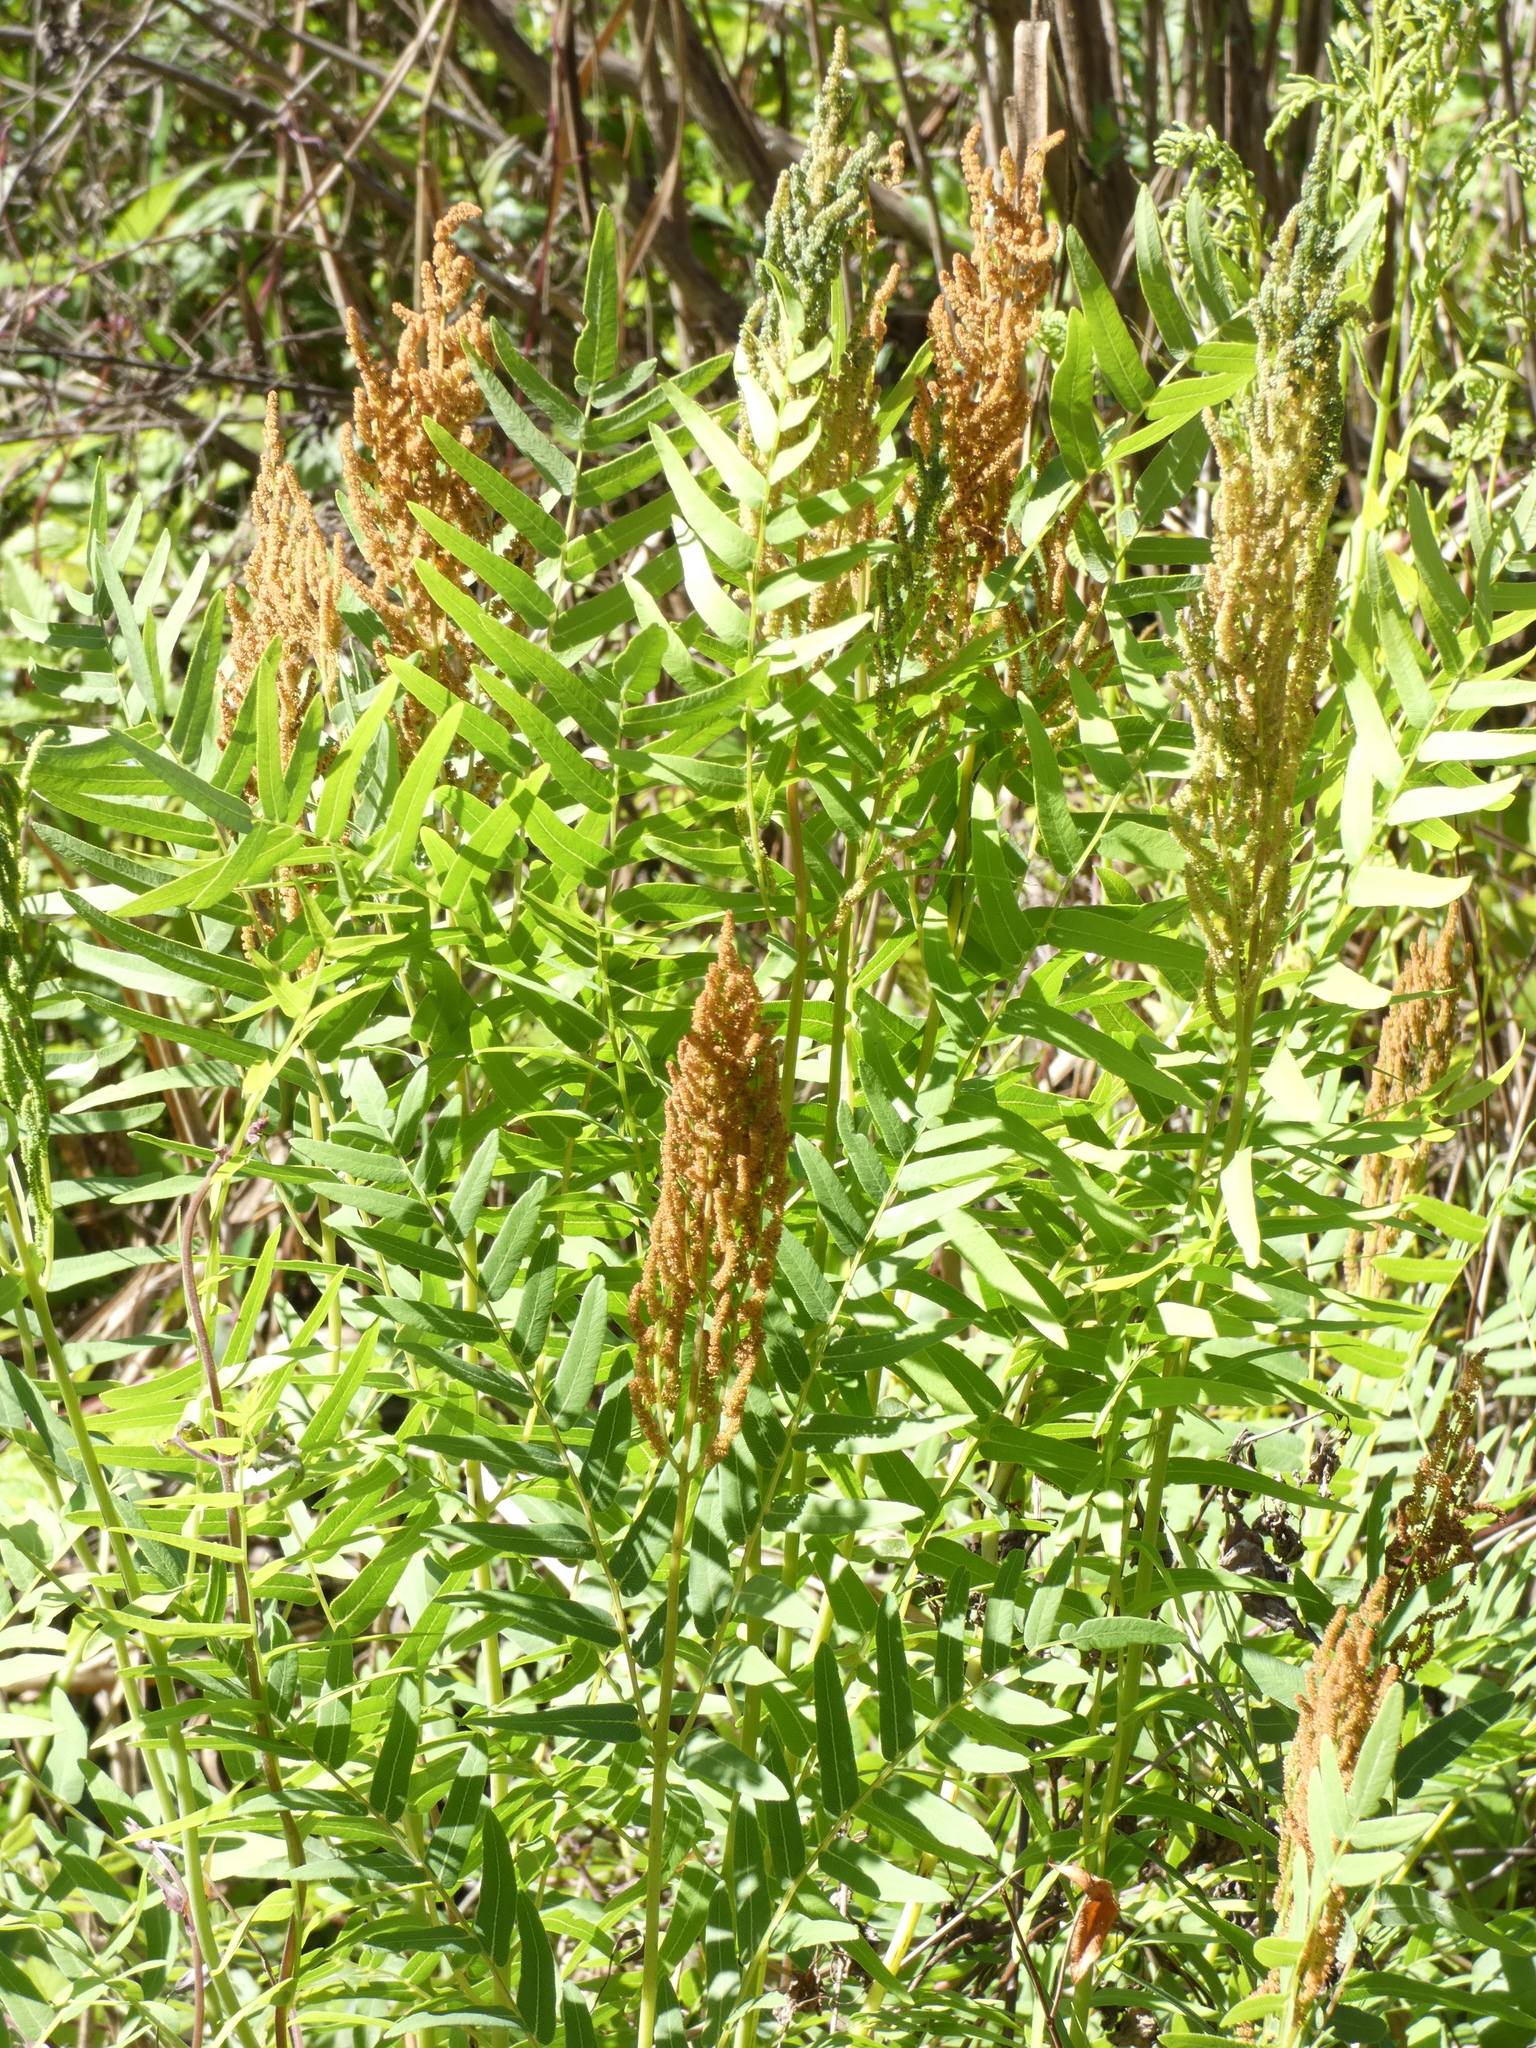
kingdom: Plantae
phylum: Tracheophyta
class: Polypodiopsida
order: Osmundales
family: Osmundaceae
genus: Osmunda
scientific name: Osmunda spectabilis
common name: American royal fern
